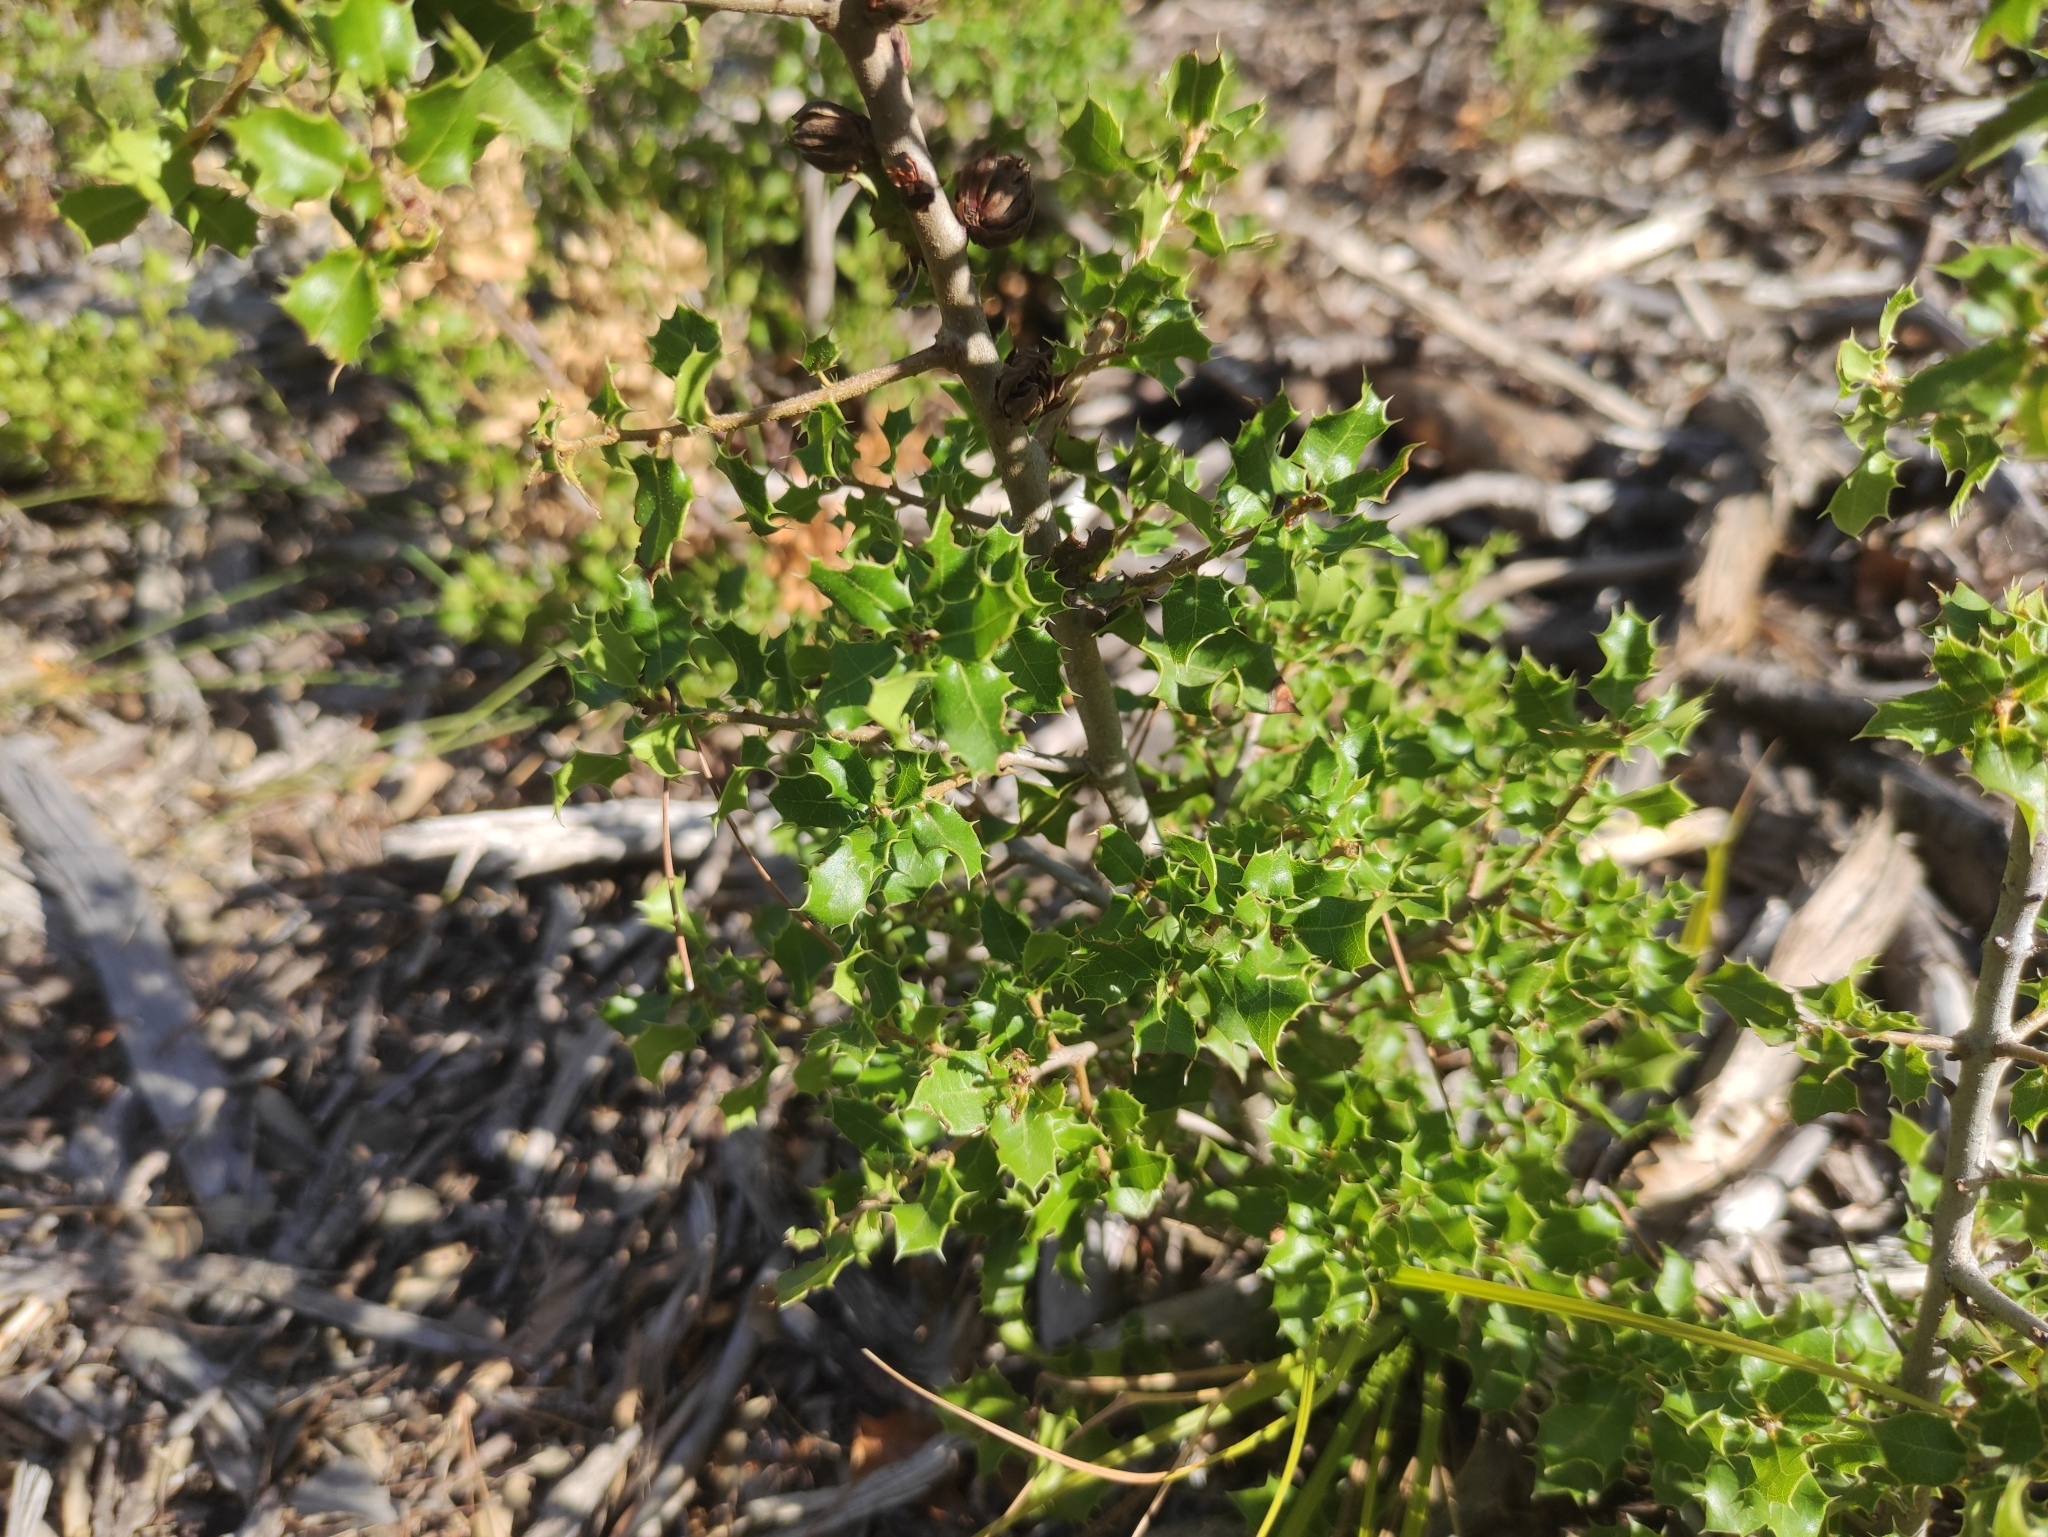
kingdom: Plantae
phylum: Tracheophyta
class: Magnoliopsida
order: Fagales
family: Fagaceae
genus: Quercus
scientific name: Quercus coccifera
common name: Kermes oak
